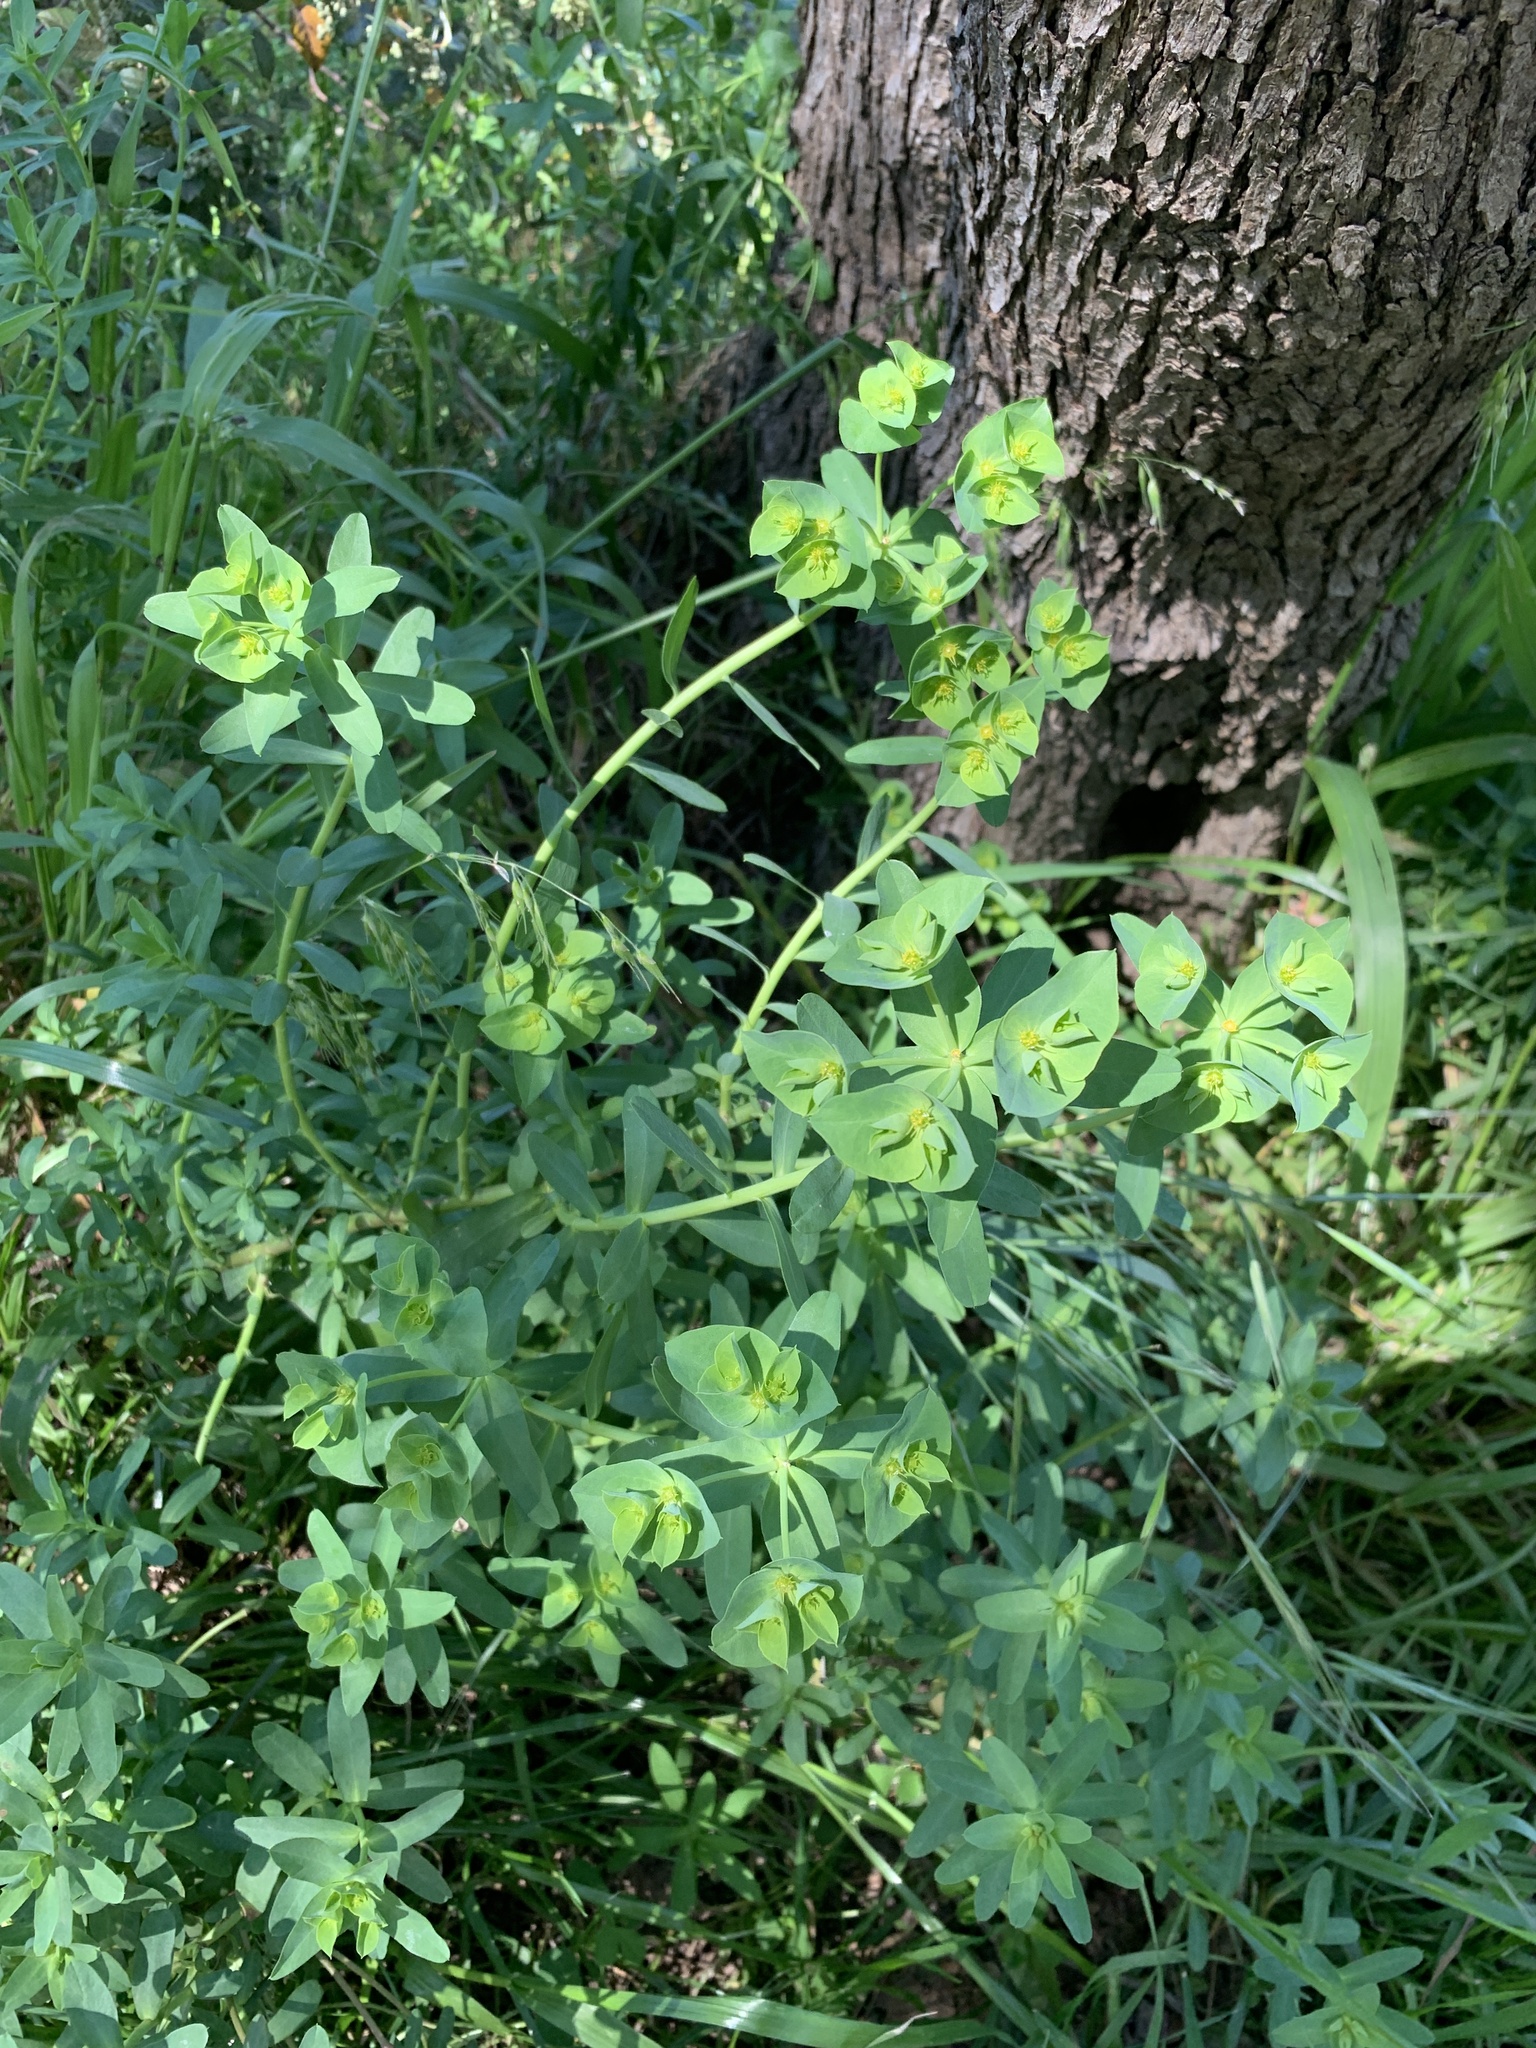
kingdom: Plantae
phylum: Tracheophyta
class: Magnoliopsida
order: Malpighiales
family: Euphorbiaceae
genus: Euphorbia
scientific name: Euphorbia terracina
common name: Geraldton carnation weed
